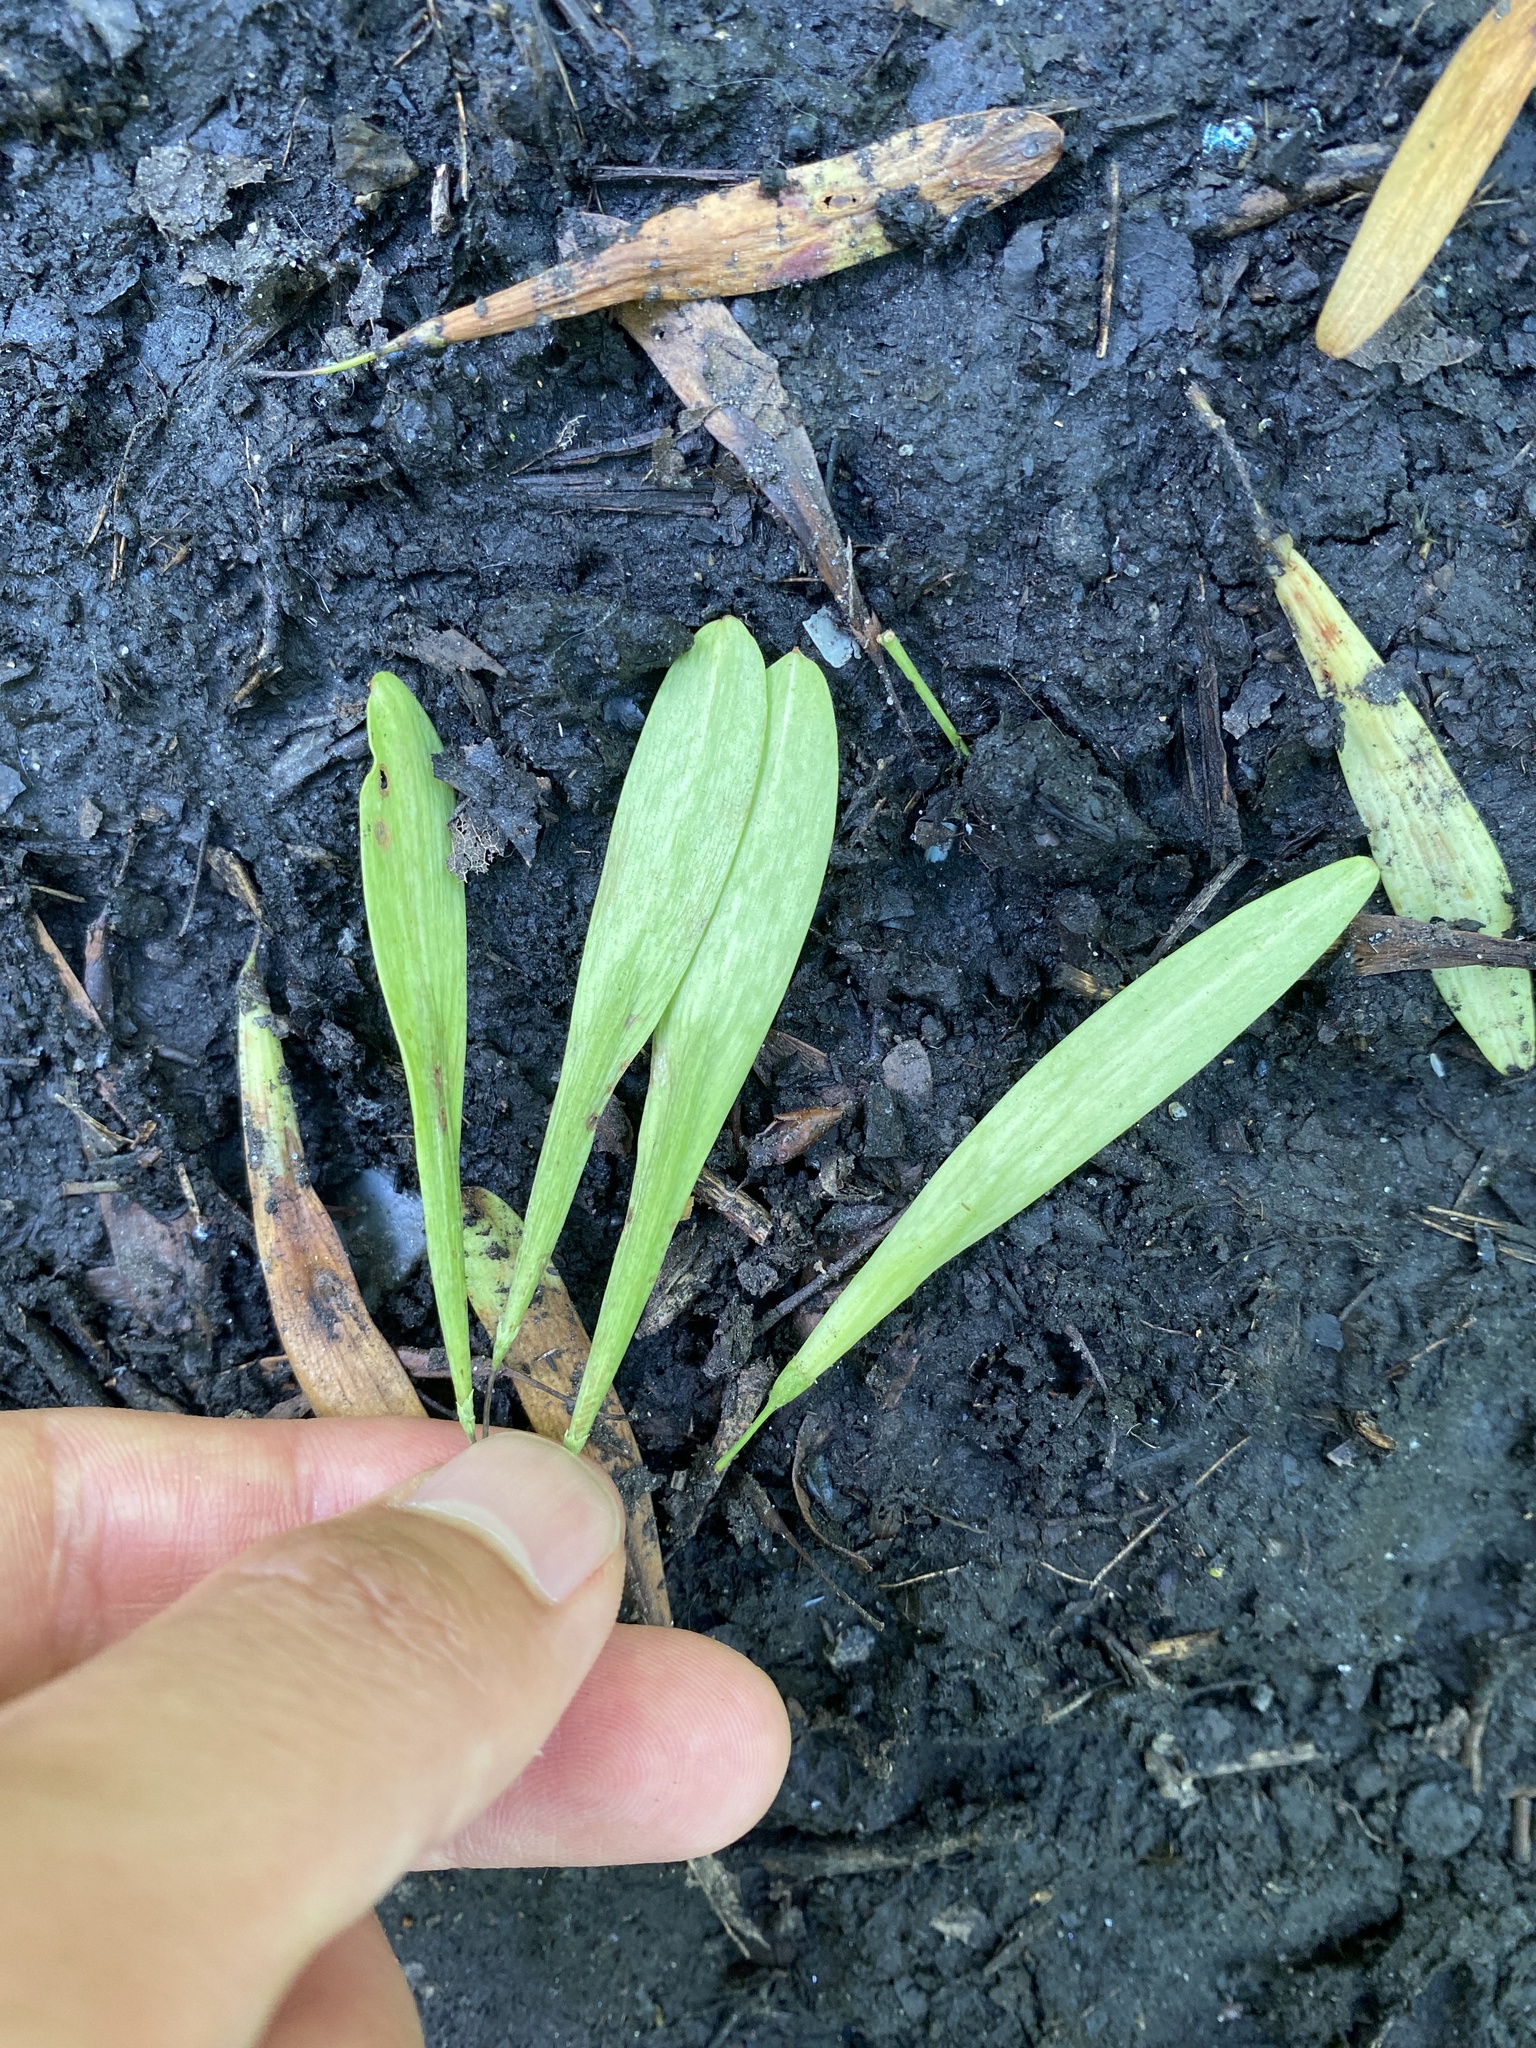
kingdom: Plantae
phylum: Tracheophyta
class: Magnoliopsida
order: Lamiales
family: Oleaceae
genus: Fraxinus
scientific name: Fraxinus profunda
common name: Pumpkin ash
